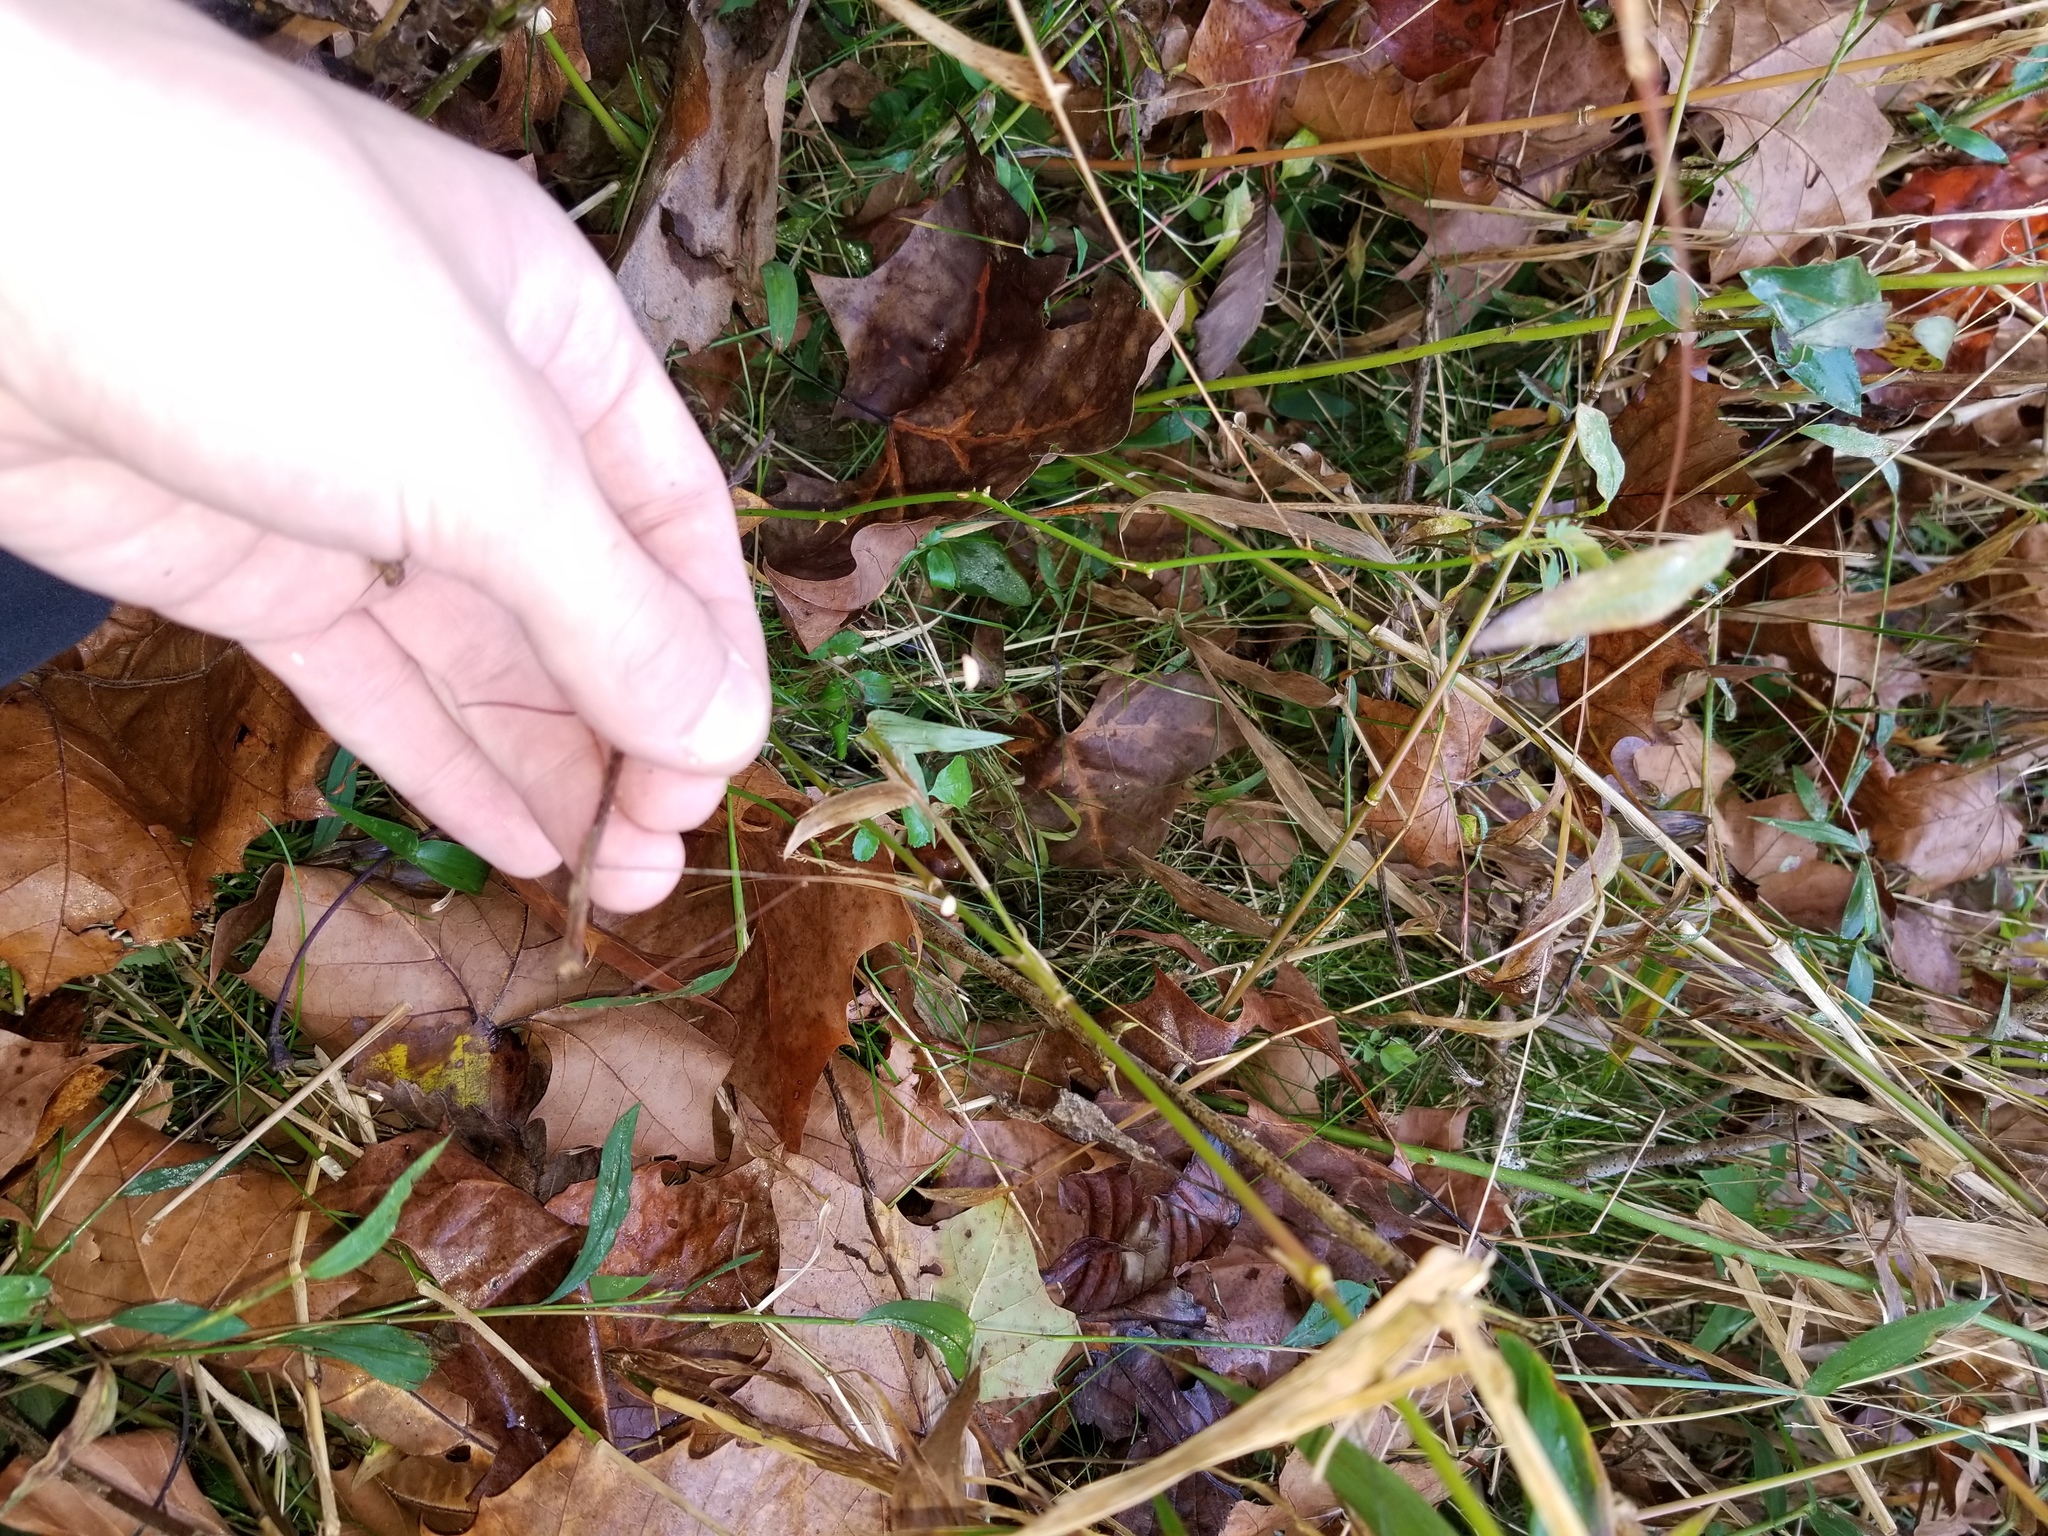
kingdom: Fungi
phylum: Basidiomycota
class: Agaricomycetes
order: Agaricales
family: Marasmiaceae
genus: Marasmius
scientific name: Marasmius felix
